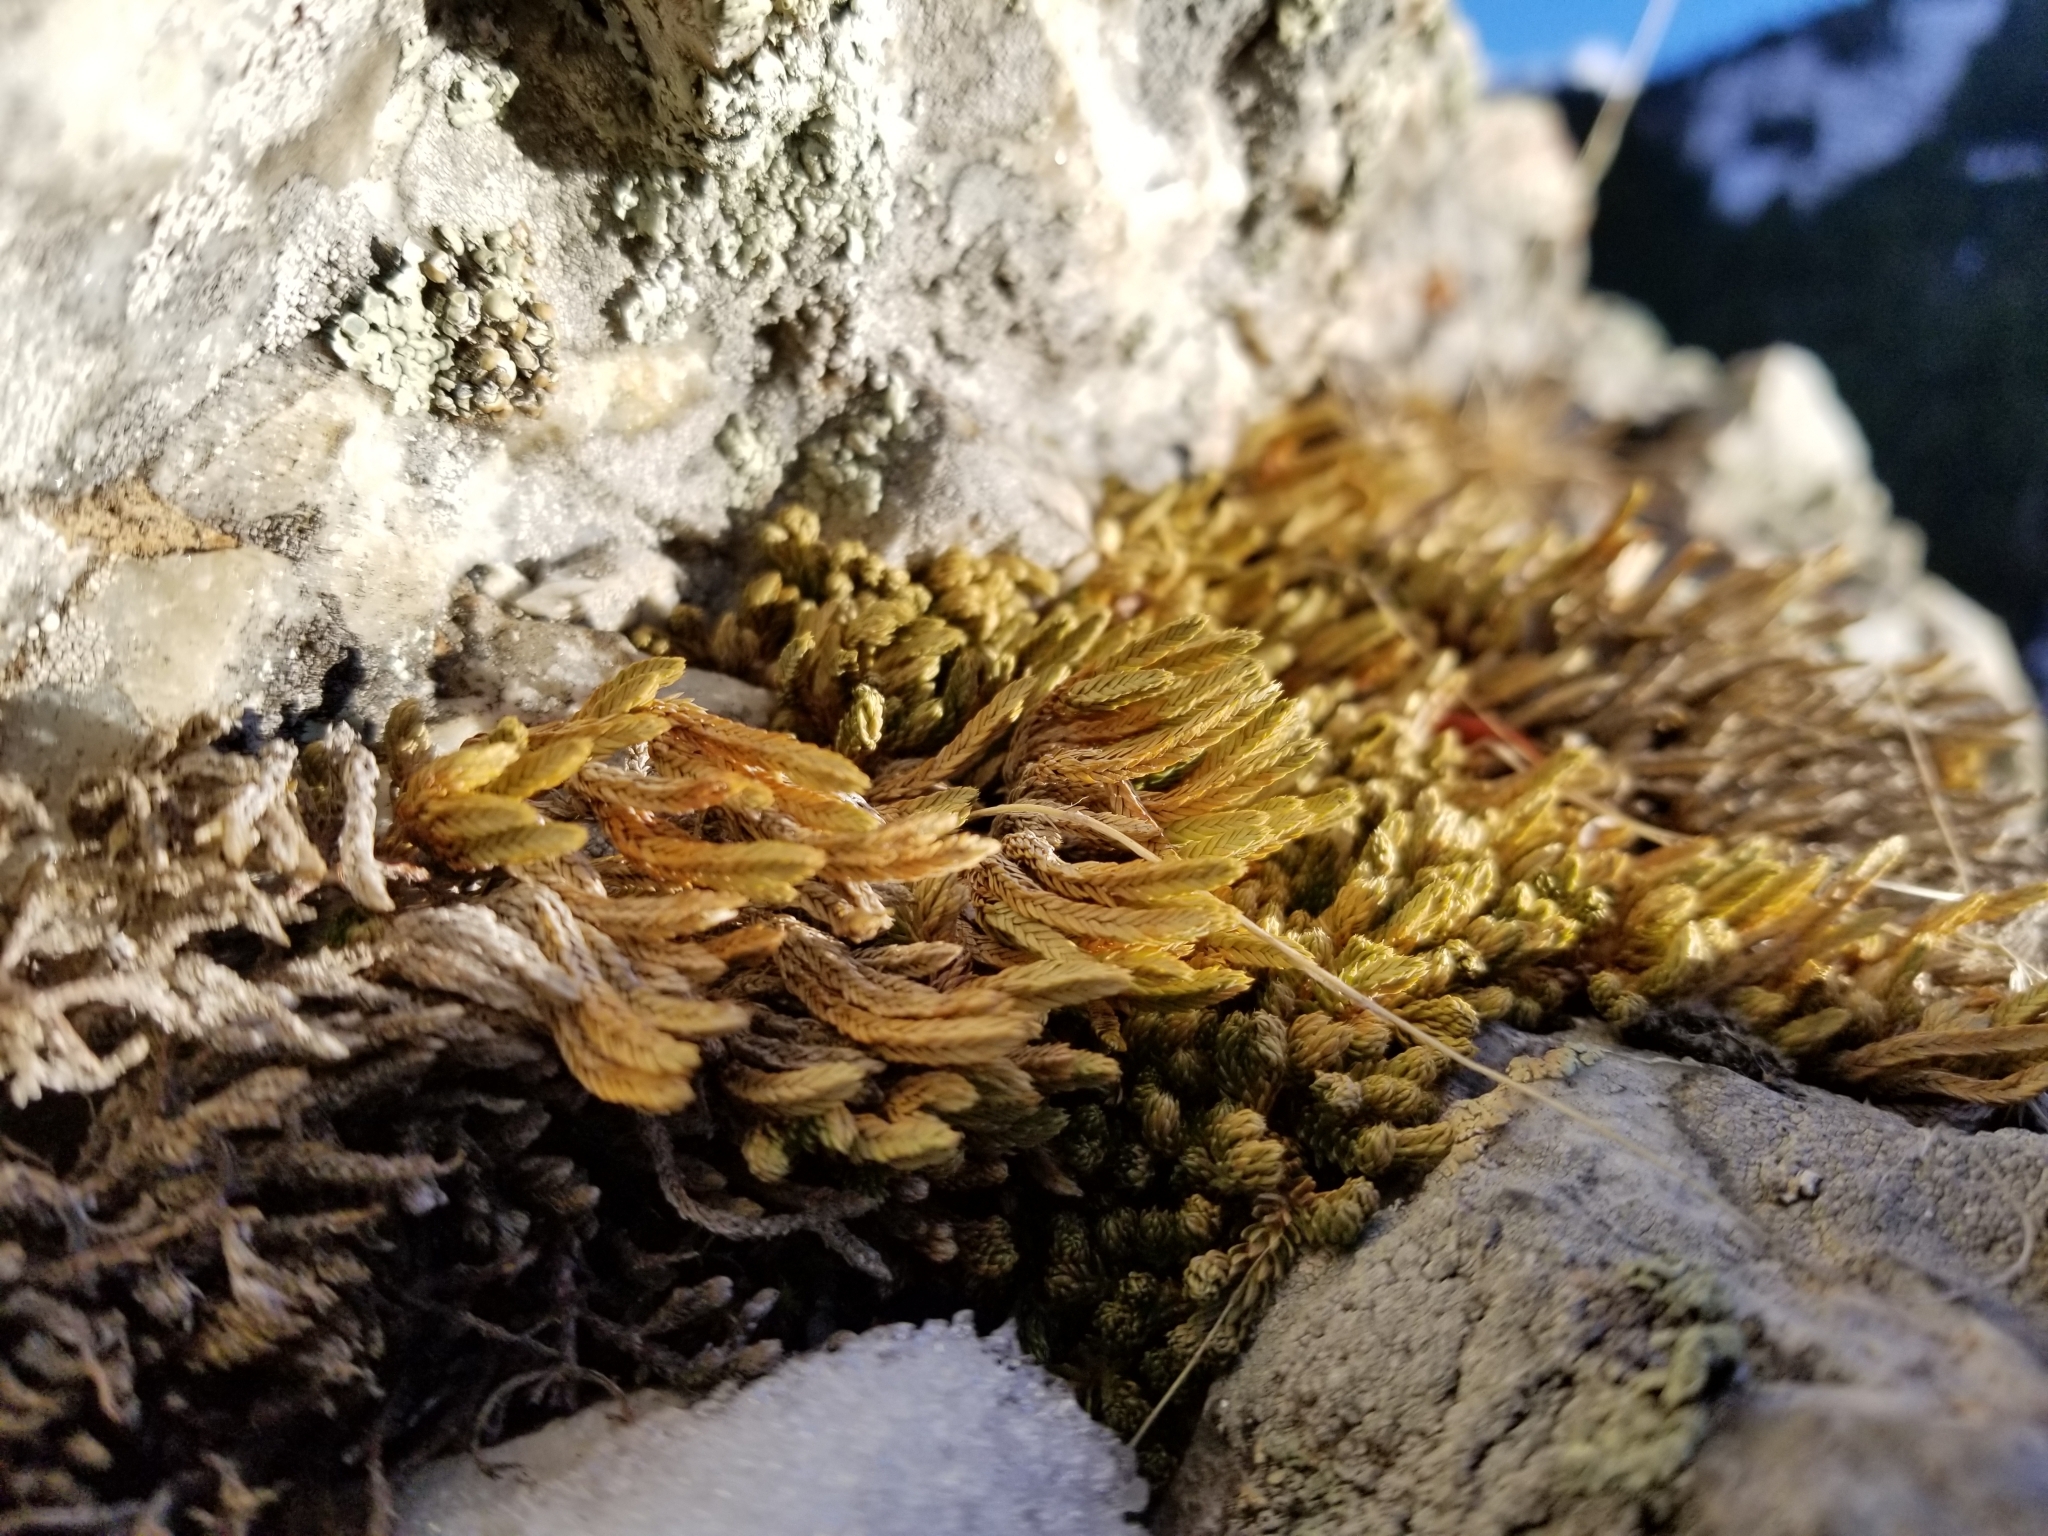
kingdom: Plantae
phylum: Tracheophyta
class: Lycopodiopsida
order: Selaginellales
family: Selaginellaceae
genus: Selaginella
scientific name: Selaginella watsonii
